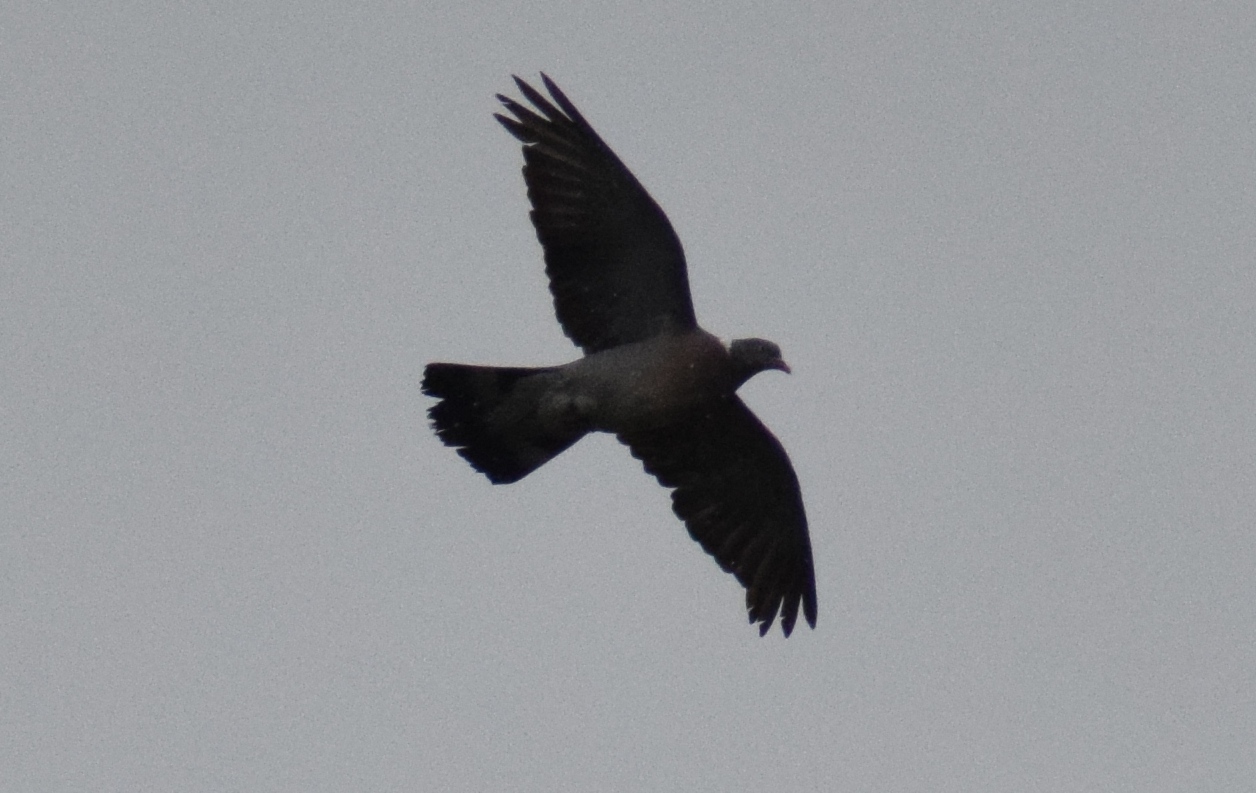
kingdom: Animalia
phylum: Chordata
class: Aves
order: Columbiformes
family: Columbidae
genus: Columba
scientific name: Columba palumbus
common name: Common wood pigeon
